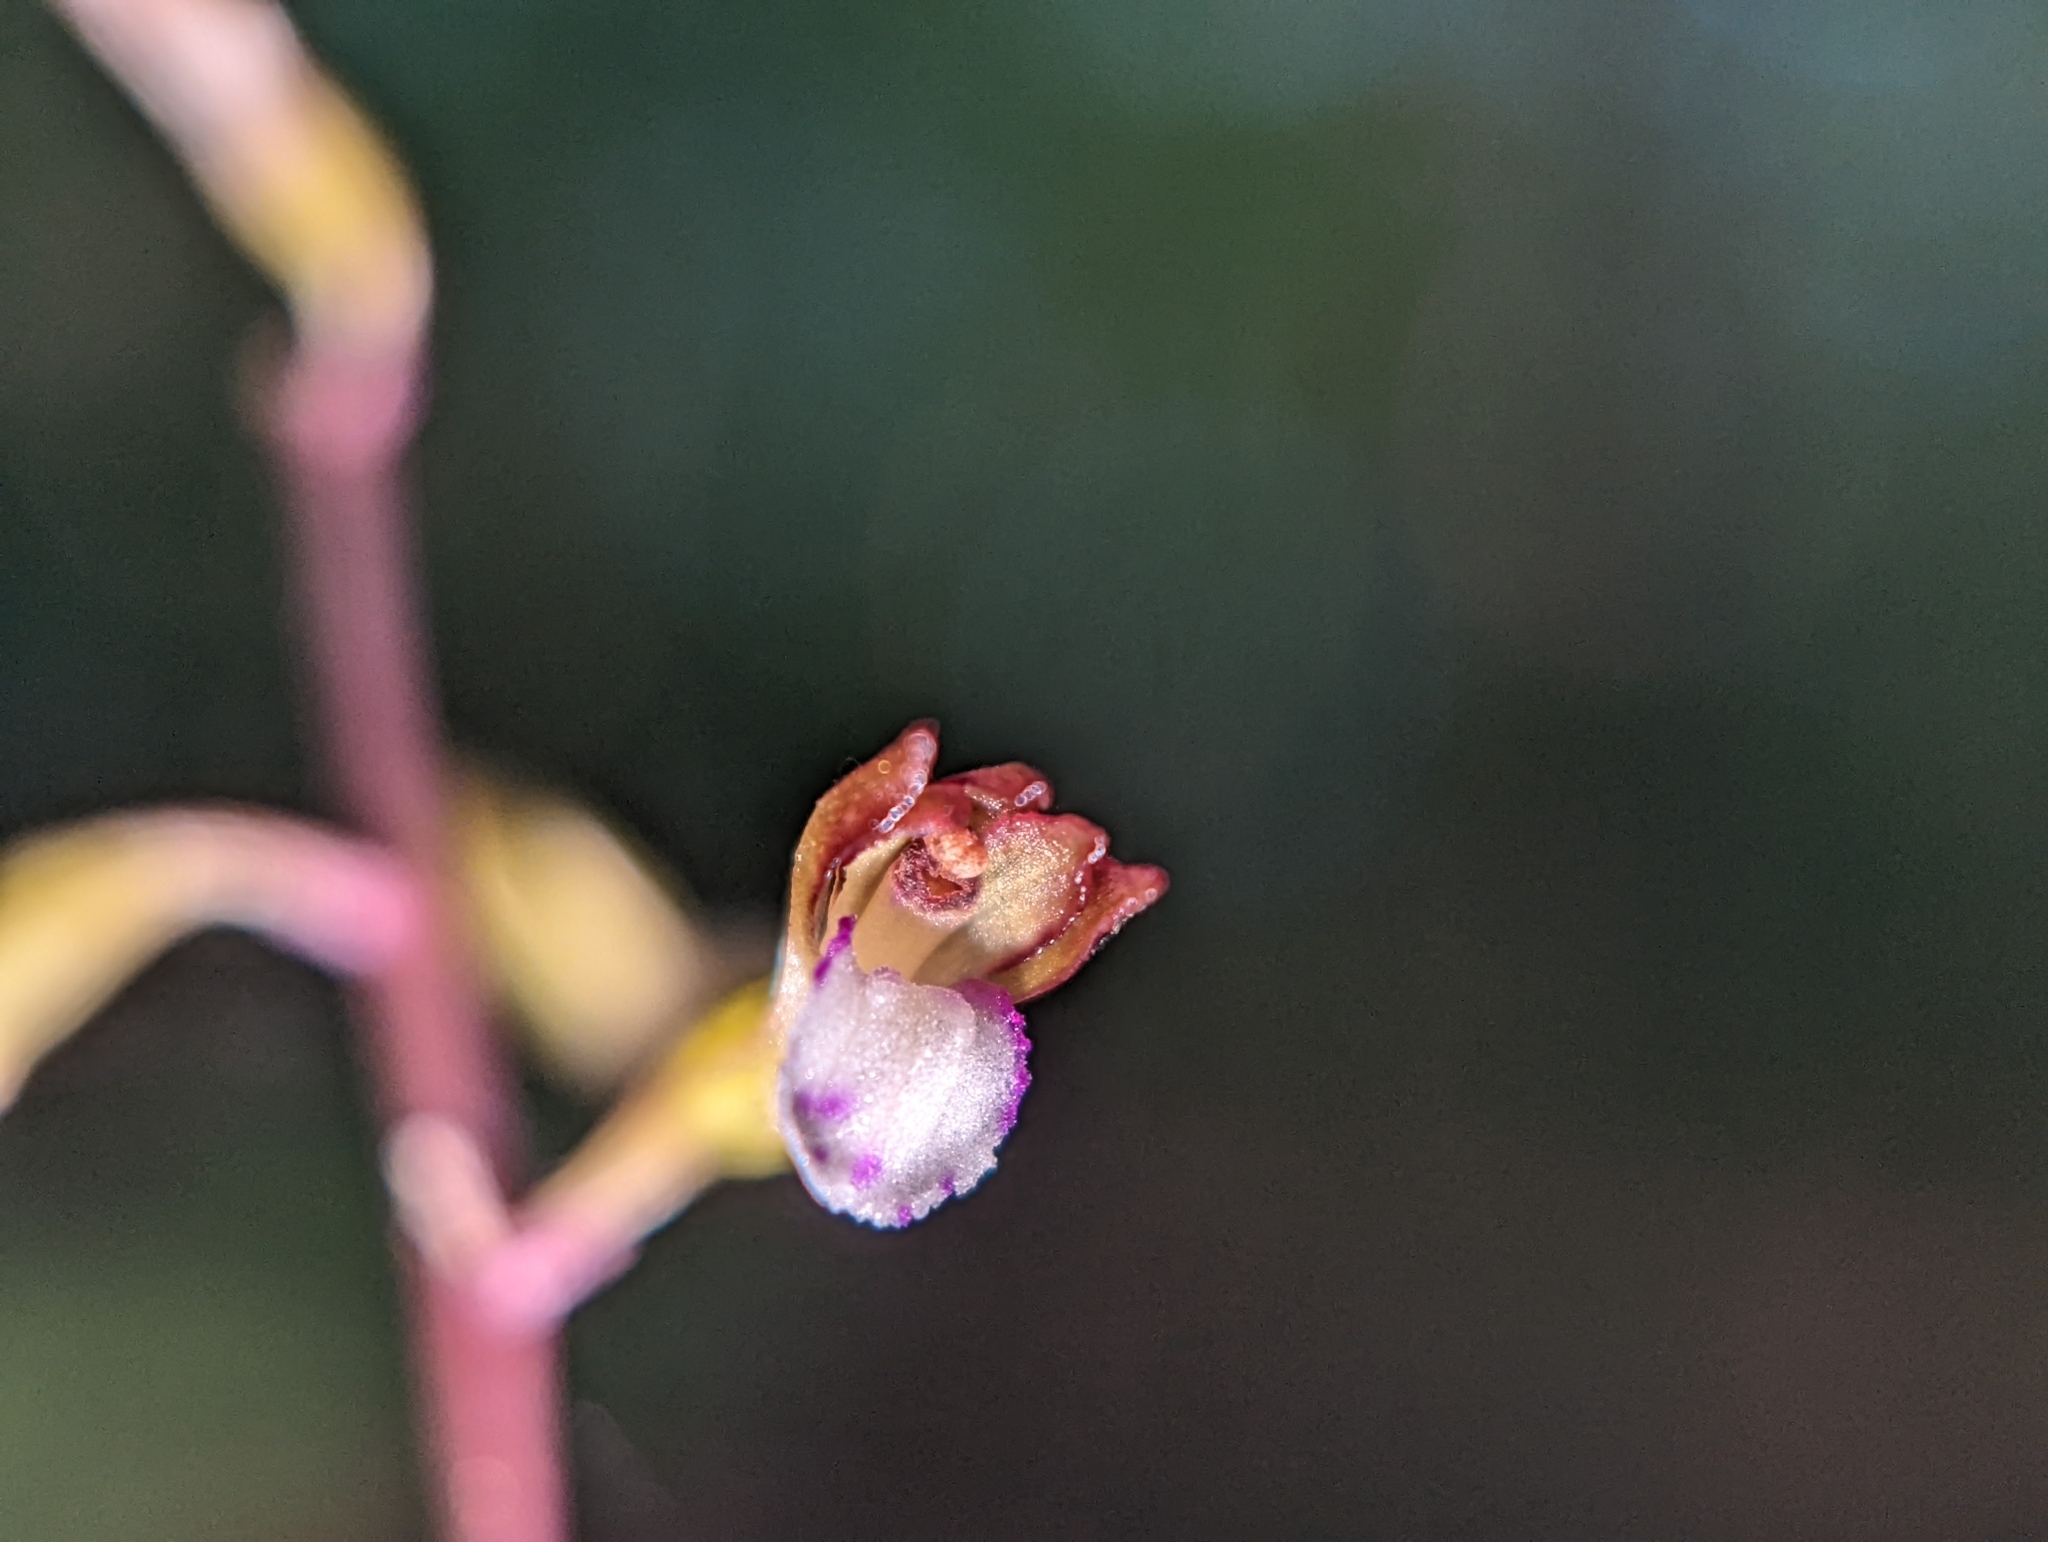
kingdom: Plantae
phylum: Tracheophyta
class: Liliopsida
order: Asparagales
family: Orchidaceae
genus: Corallorhiza
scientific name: Corallorhiza odontorhiza
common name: Autumn coralroot
